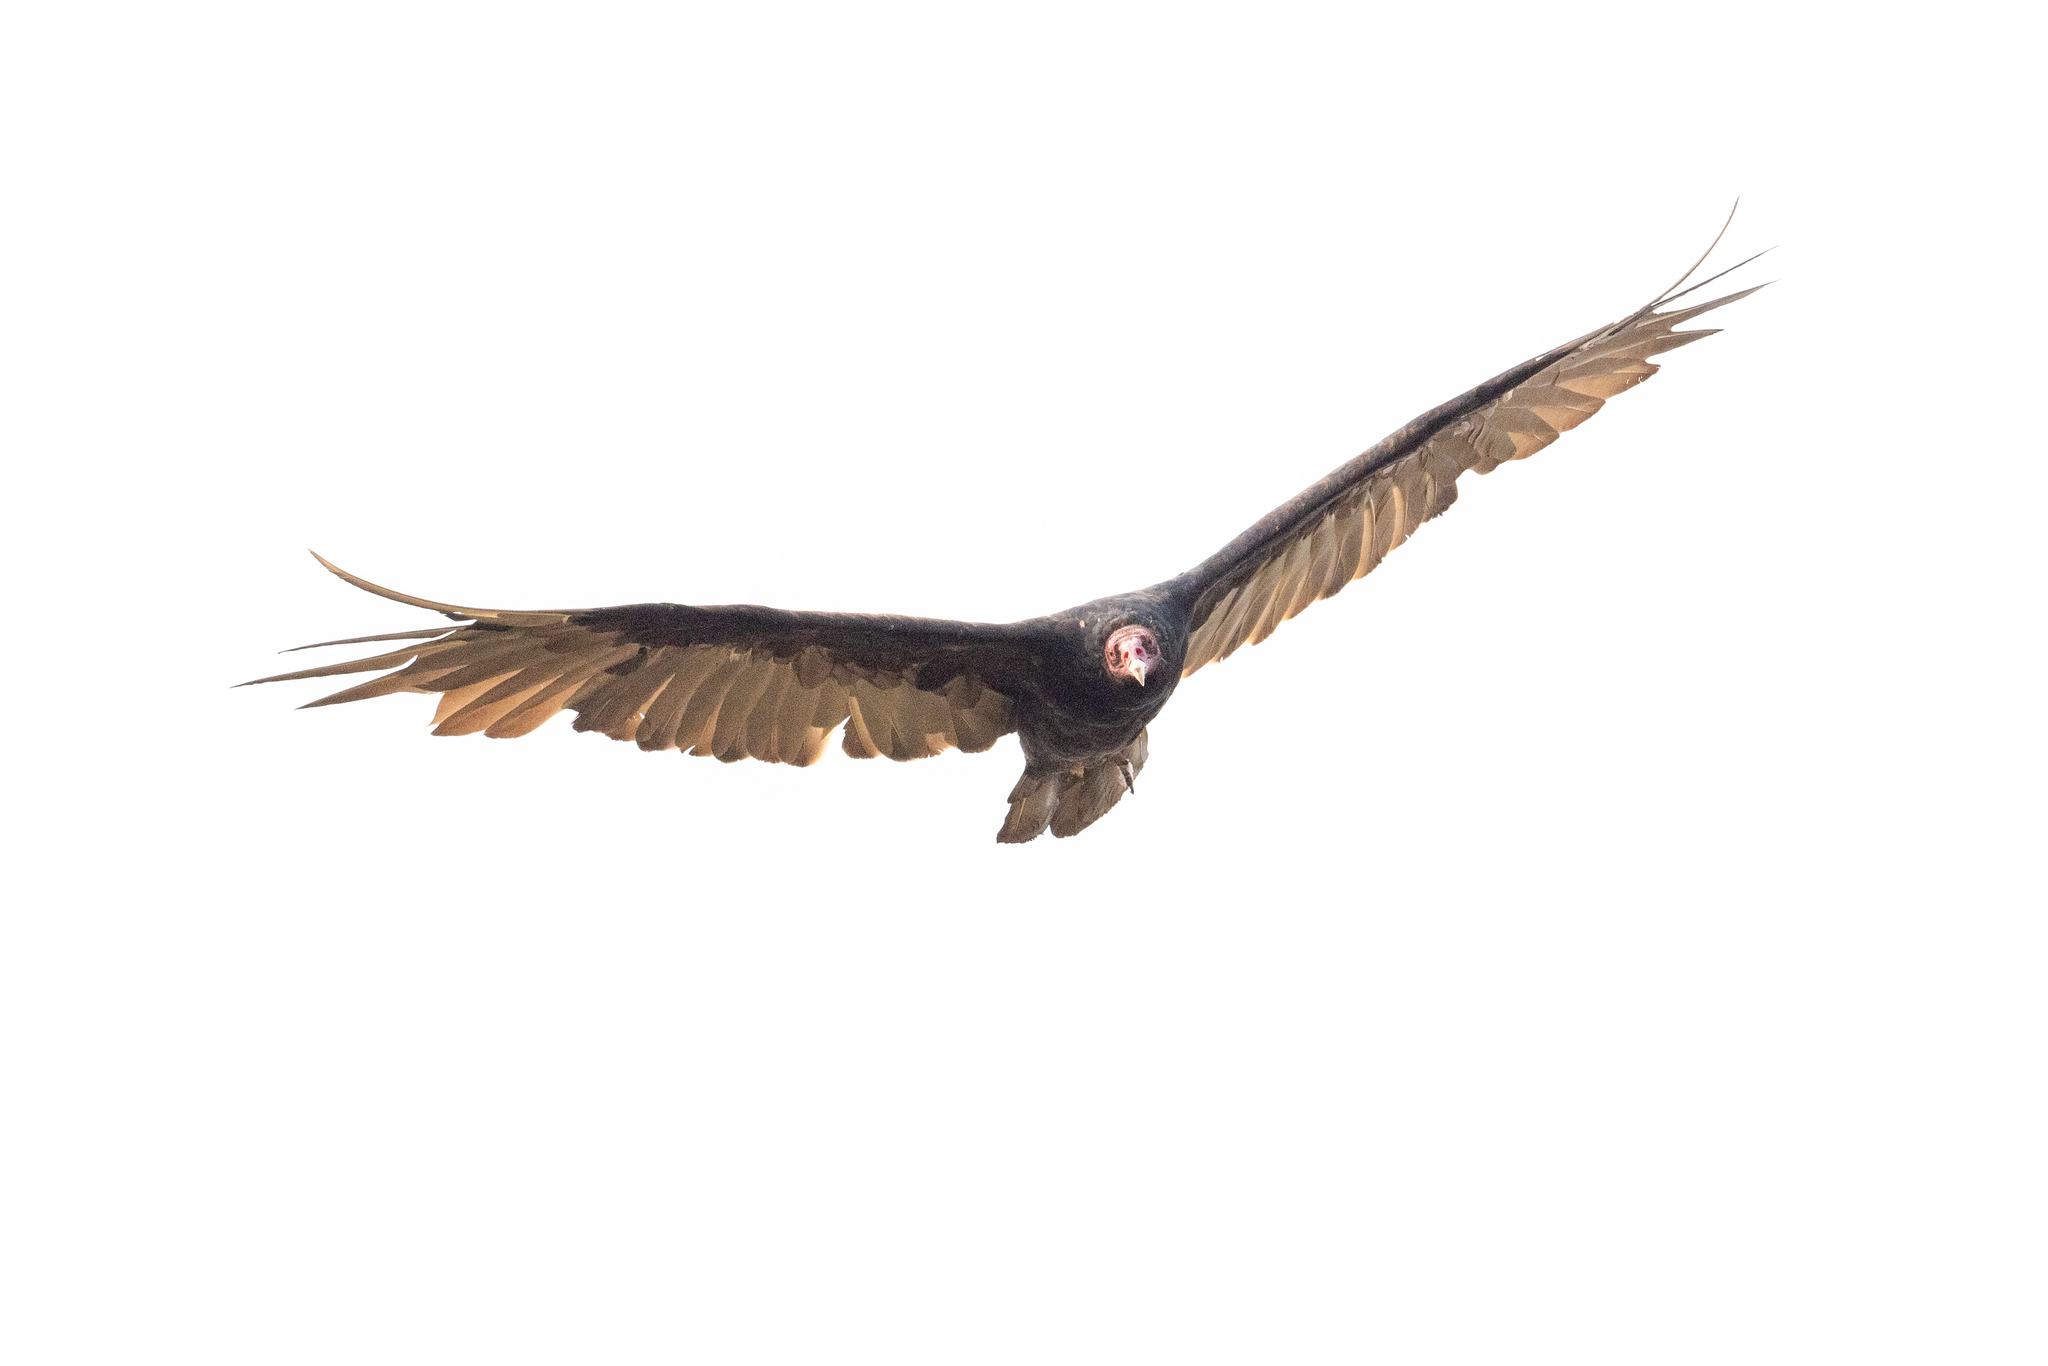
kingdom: Animalia
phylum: Chordata
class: Aves
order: Accipitriformes
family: Cathartidae
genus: Cathartes
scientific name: Cathartes aura
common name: Turkey vulture
